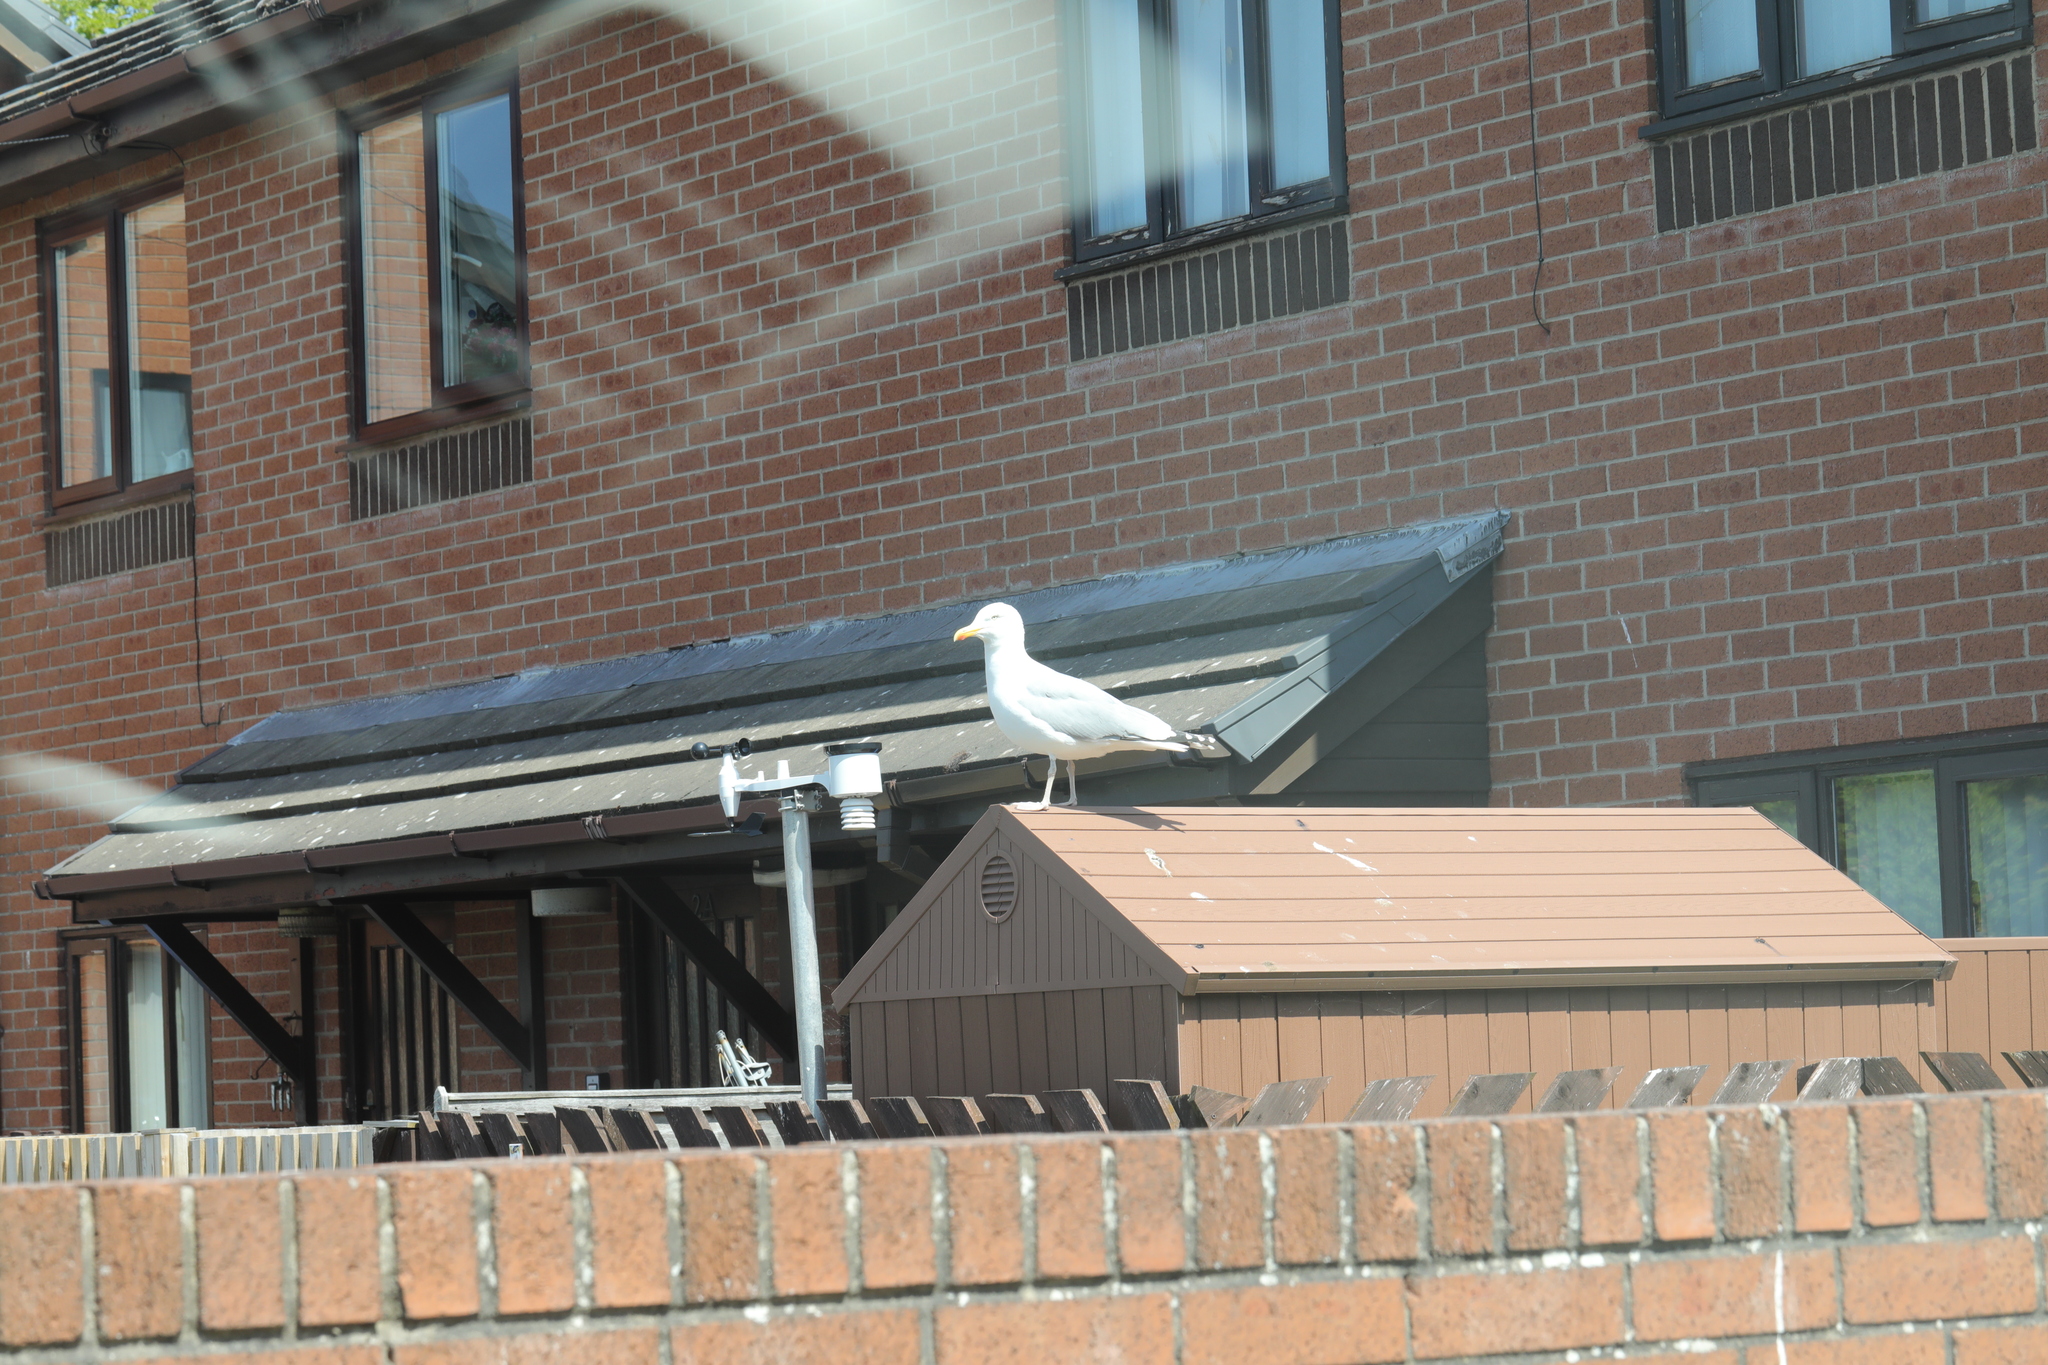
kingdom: Animalia
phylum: Chordata
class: Aves
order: Charadriiformes
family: Laridae
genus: Larus
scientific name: Larus argentatus
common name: Herring gull
